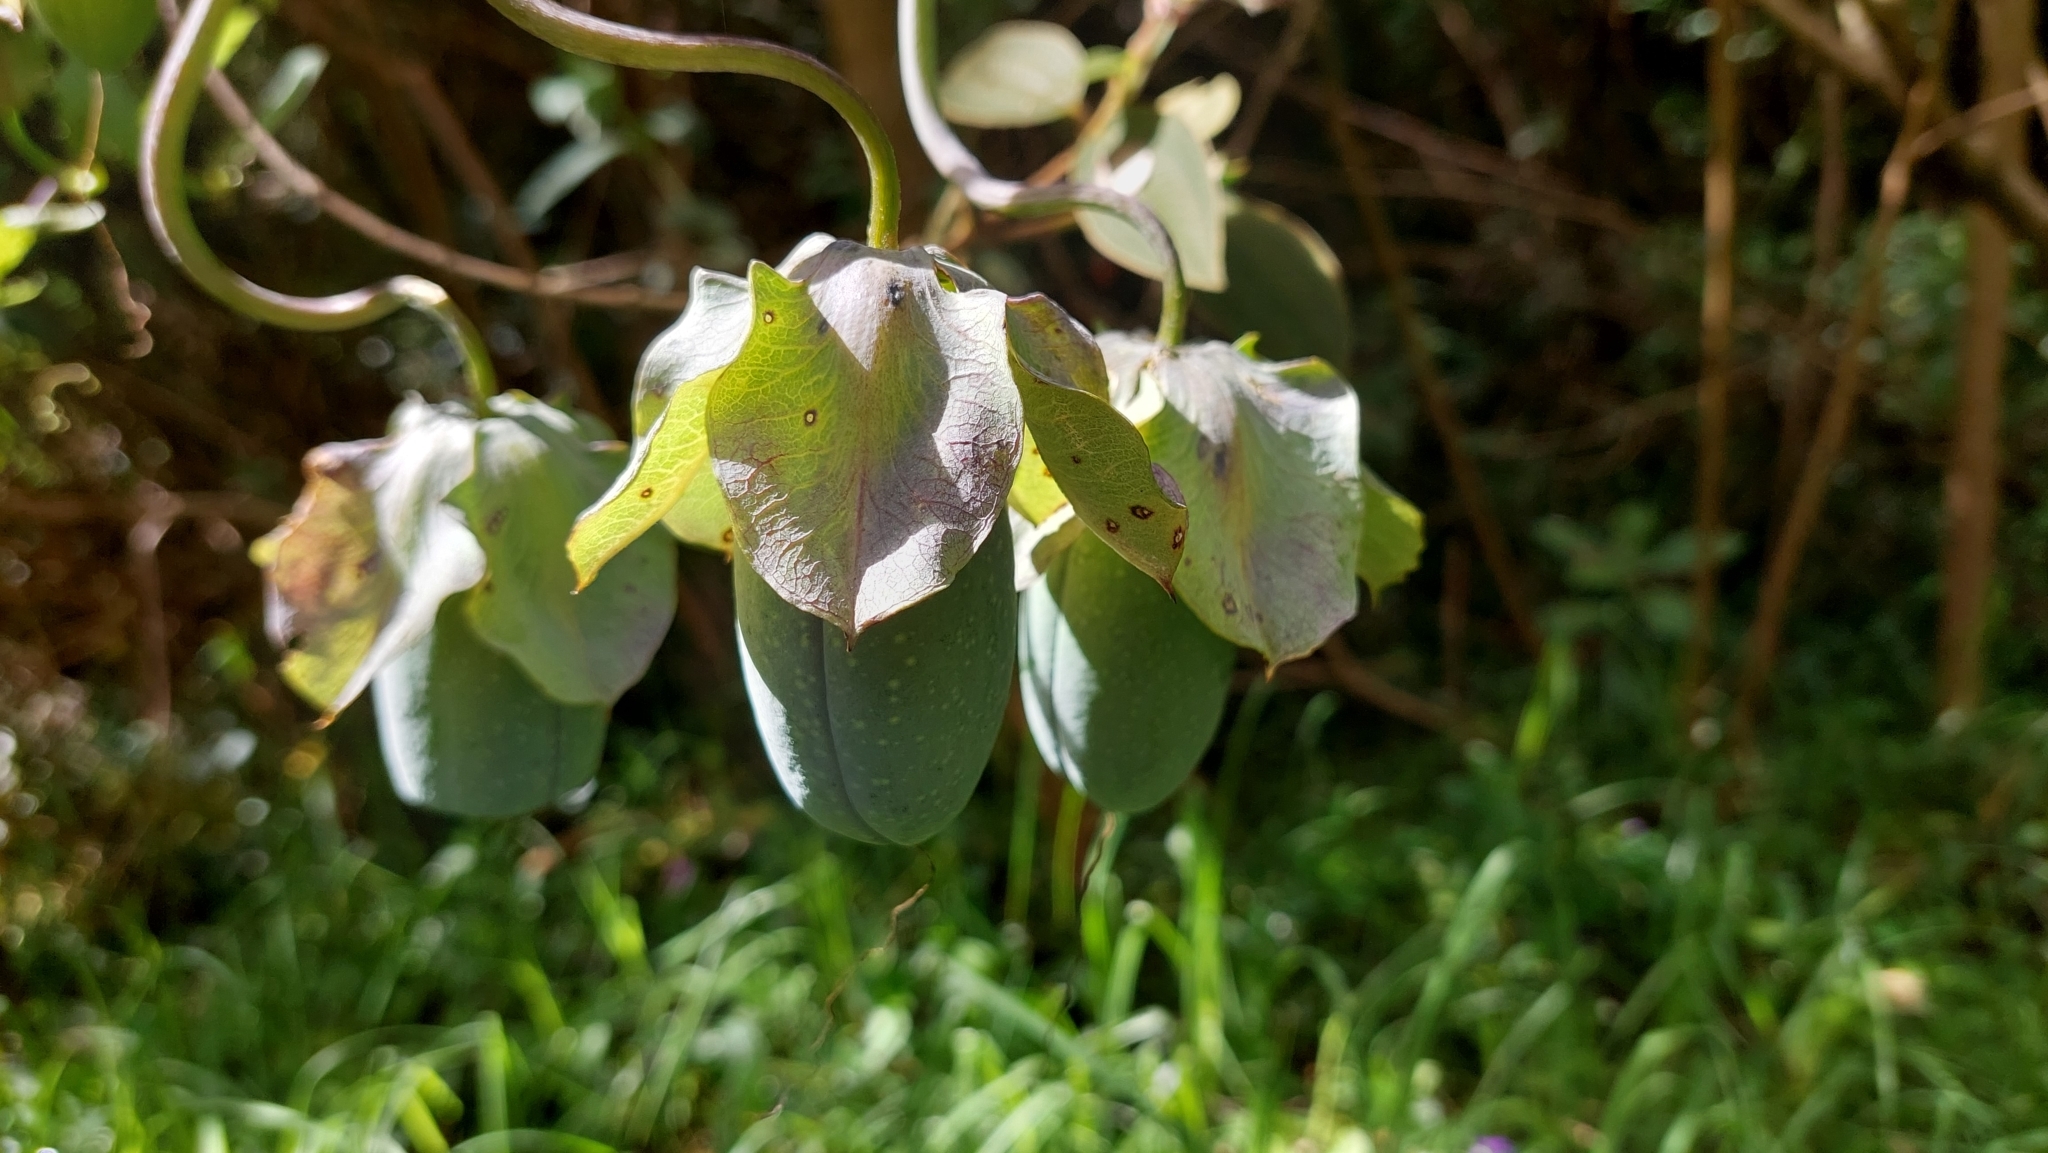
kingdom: Plantae
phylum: Tracheophyta
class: Magnoliopsida
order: Ericales
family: Polemoniaceae
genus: Cobaea
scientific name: Cobaea scandens
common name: Cup-and-saucer-vine
